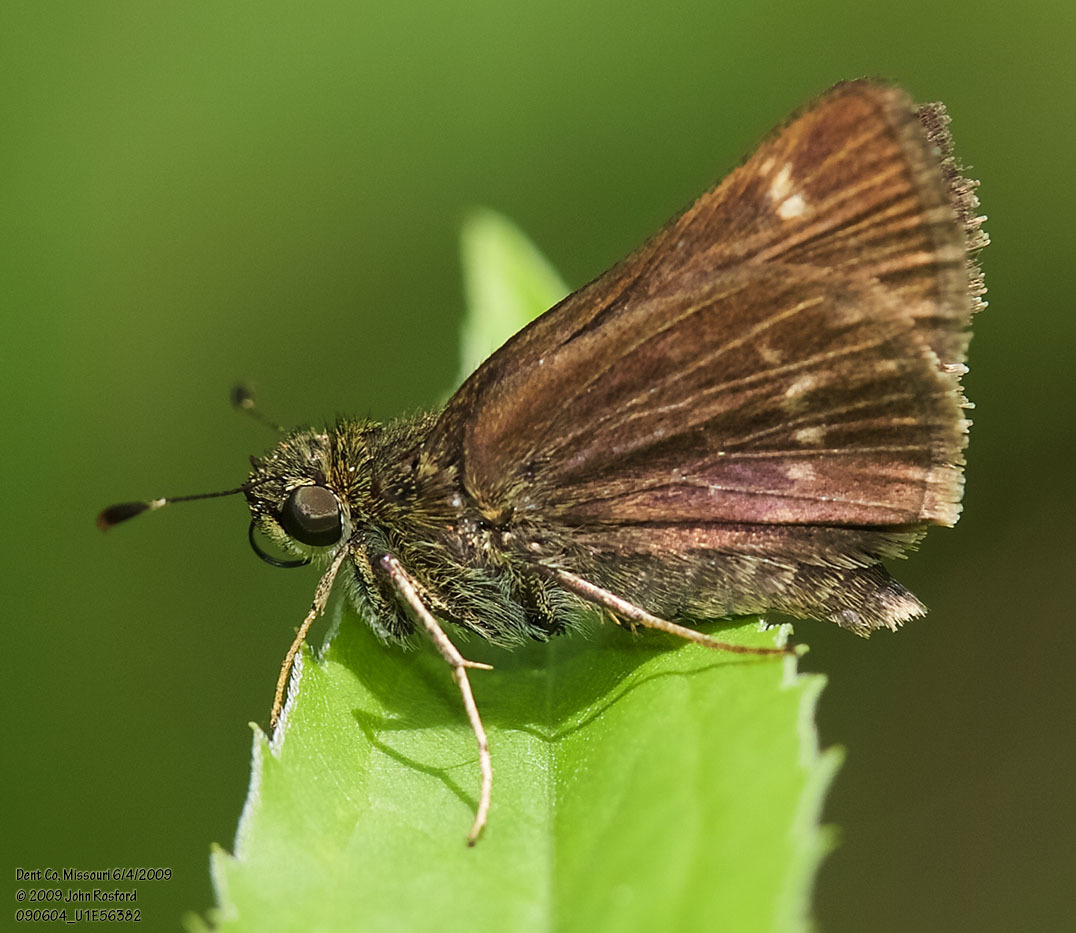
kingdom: Animalia
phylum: Arthropoda
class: Insecta
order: Lepidoptera
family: Hesperiidae
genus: Vernia
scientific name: Vernia verna
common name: Little glassywing
